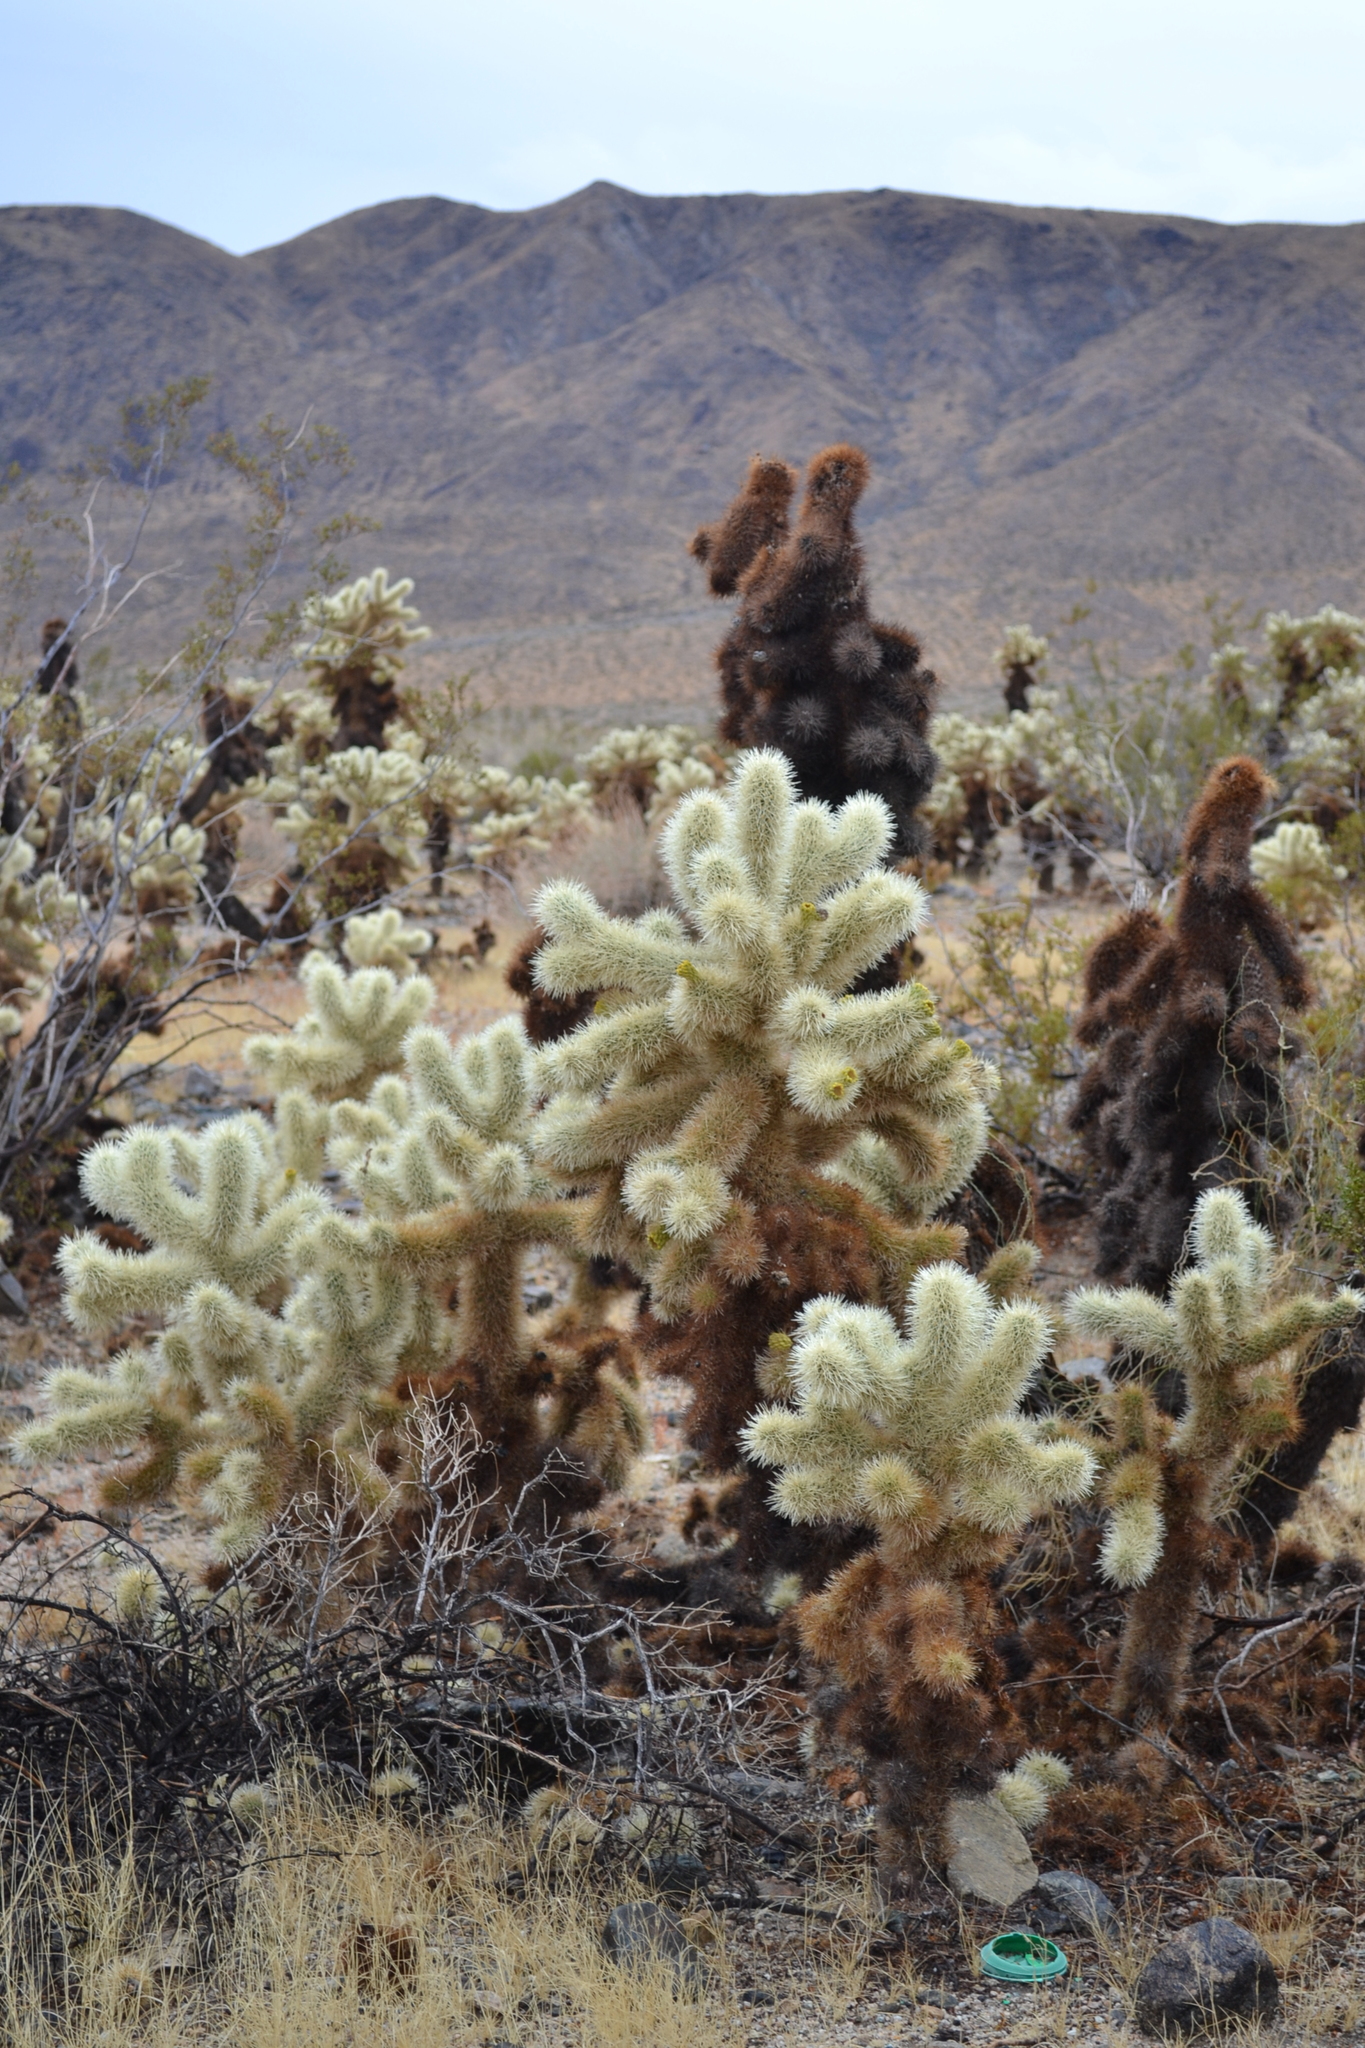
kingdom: Plantae
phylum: Tracheophyta
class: Magnoliopsida
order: Caryophyllales
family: Cactaceae
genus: Cylindropuntia
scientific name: Cylindropuntia fosbergii
